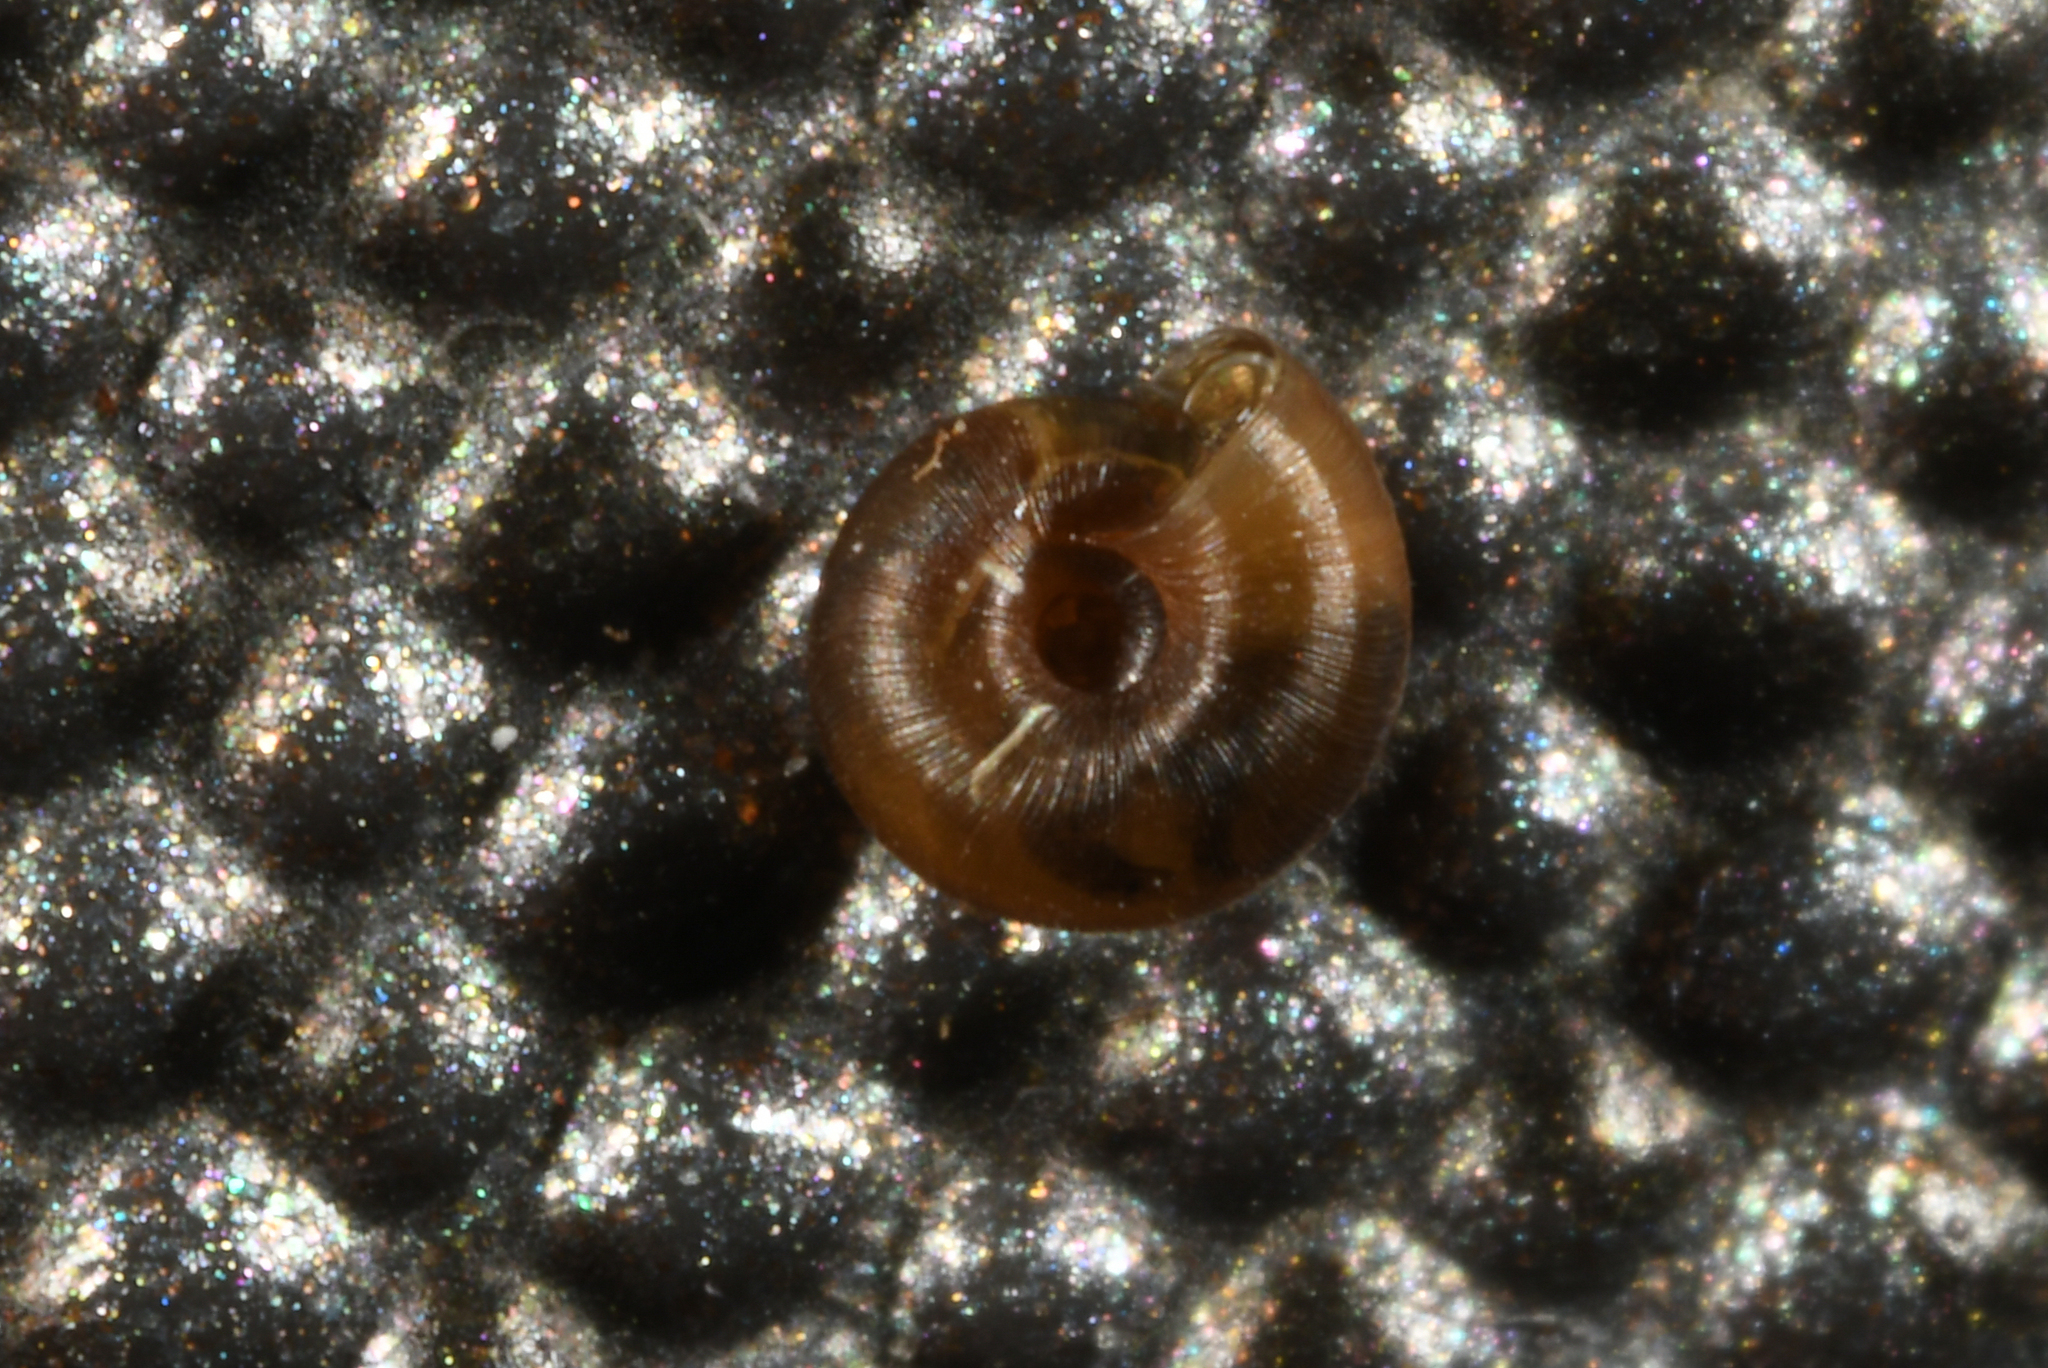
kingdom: Animalia
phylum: Mollusca
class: Gastropoda
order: Stylommatophora
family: Punctidae
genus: Punctum
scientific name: Punctum pygmaeum
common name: Dwarf snail
